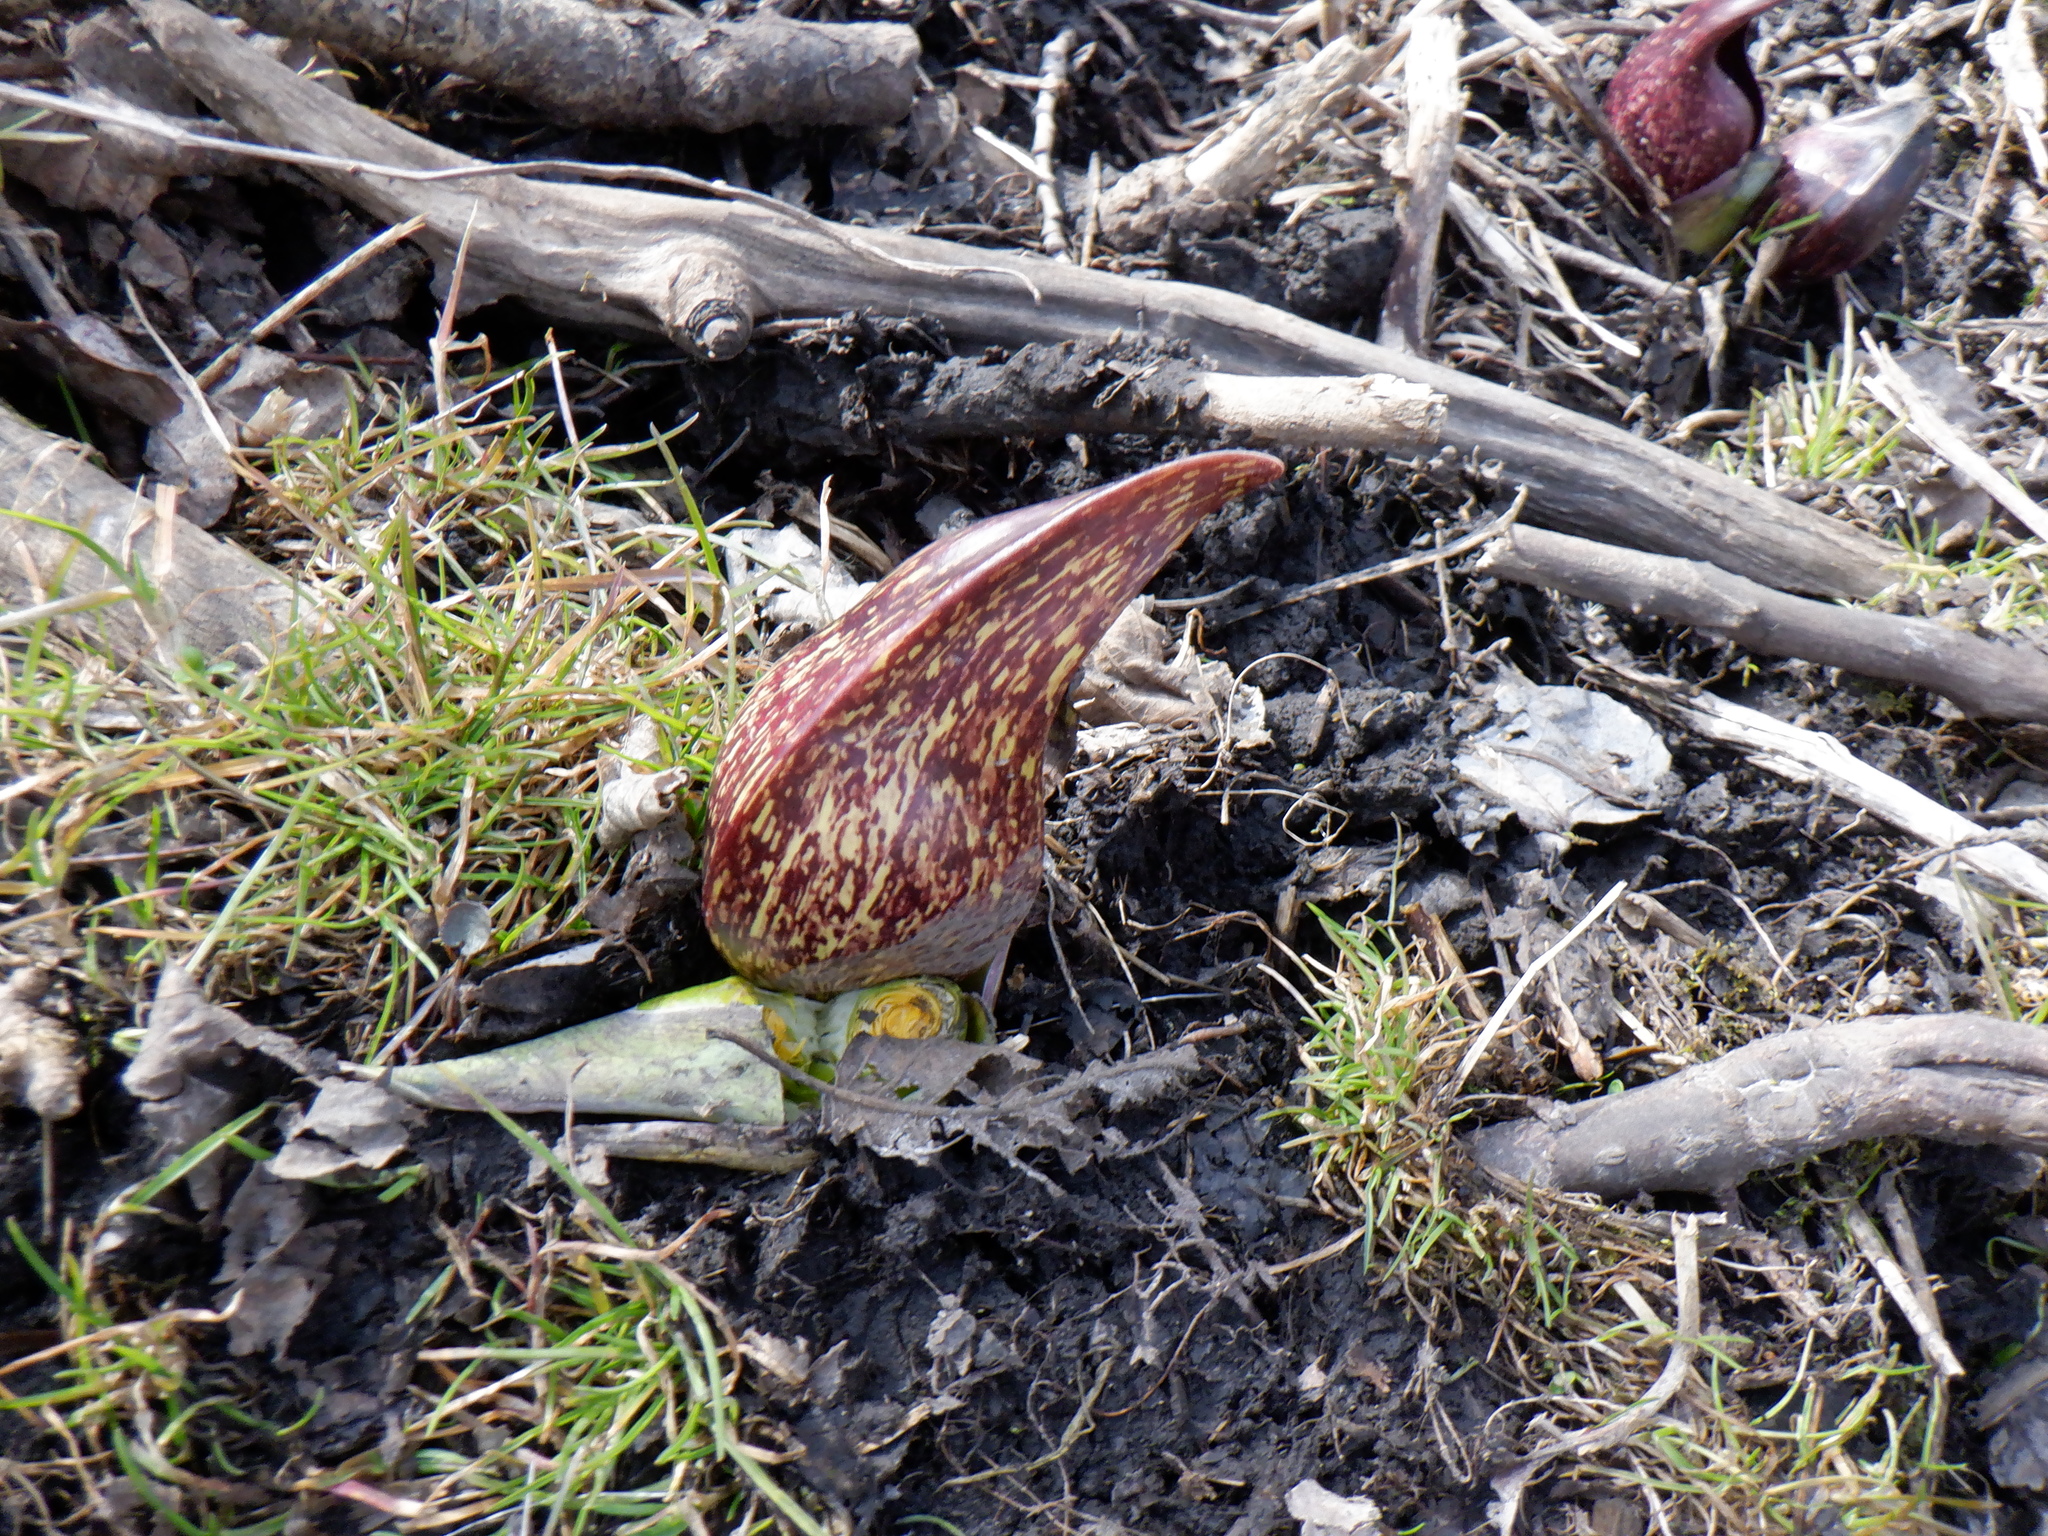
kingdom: Plantae
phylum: Tracheophyta
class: Liliopsida
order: Alismatales
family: Araceae
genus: Symplocarpus
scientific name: Symplocarpus foetidus
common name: Eastern skunk cabbage
